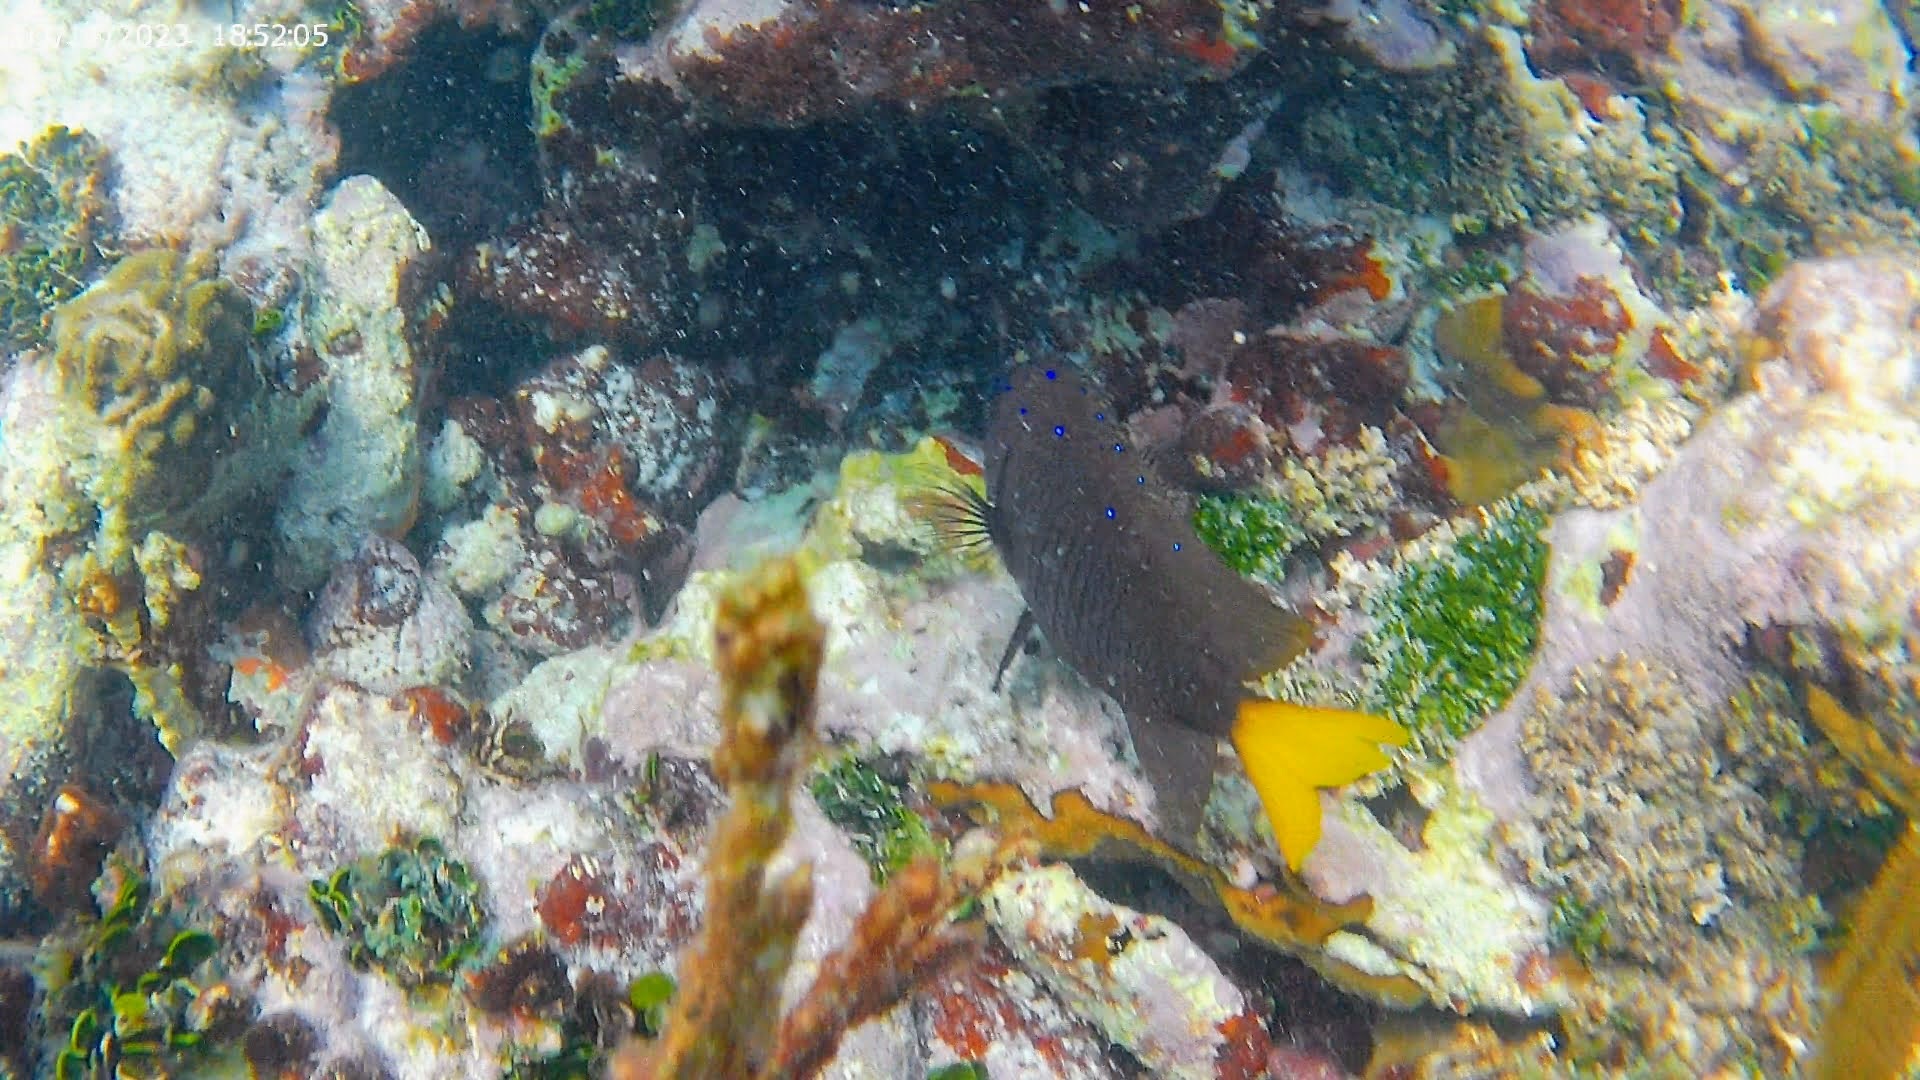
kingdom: Animalia
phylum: Chordata
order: Perciformes
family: Pomacentridae
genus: Microspathodon
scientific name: Microspathodon chrysurus
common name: Yellowtail damselfish
